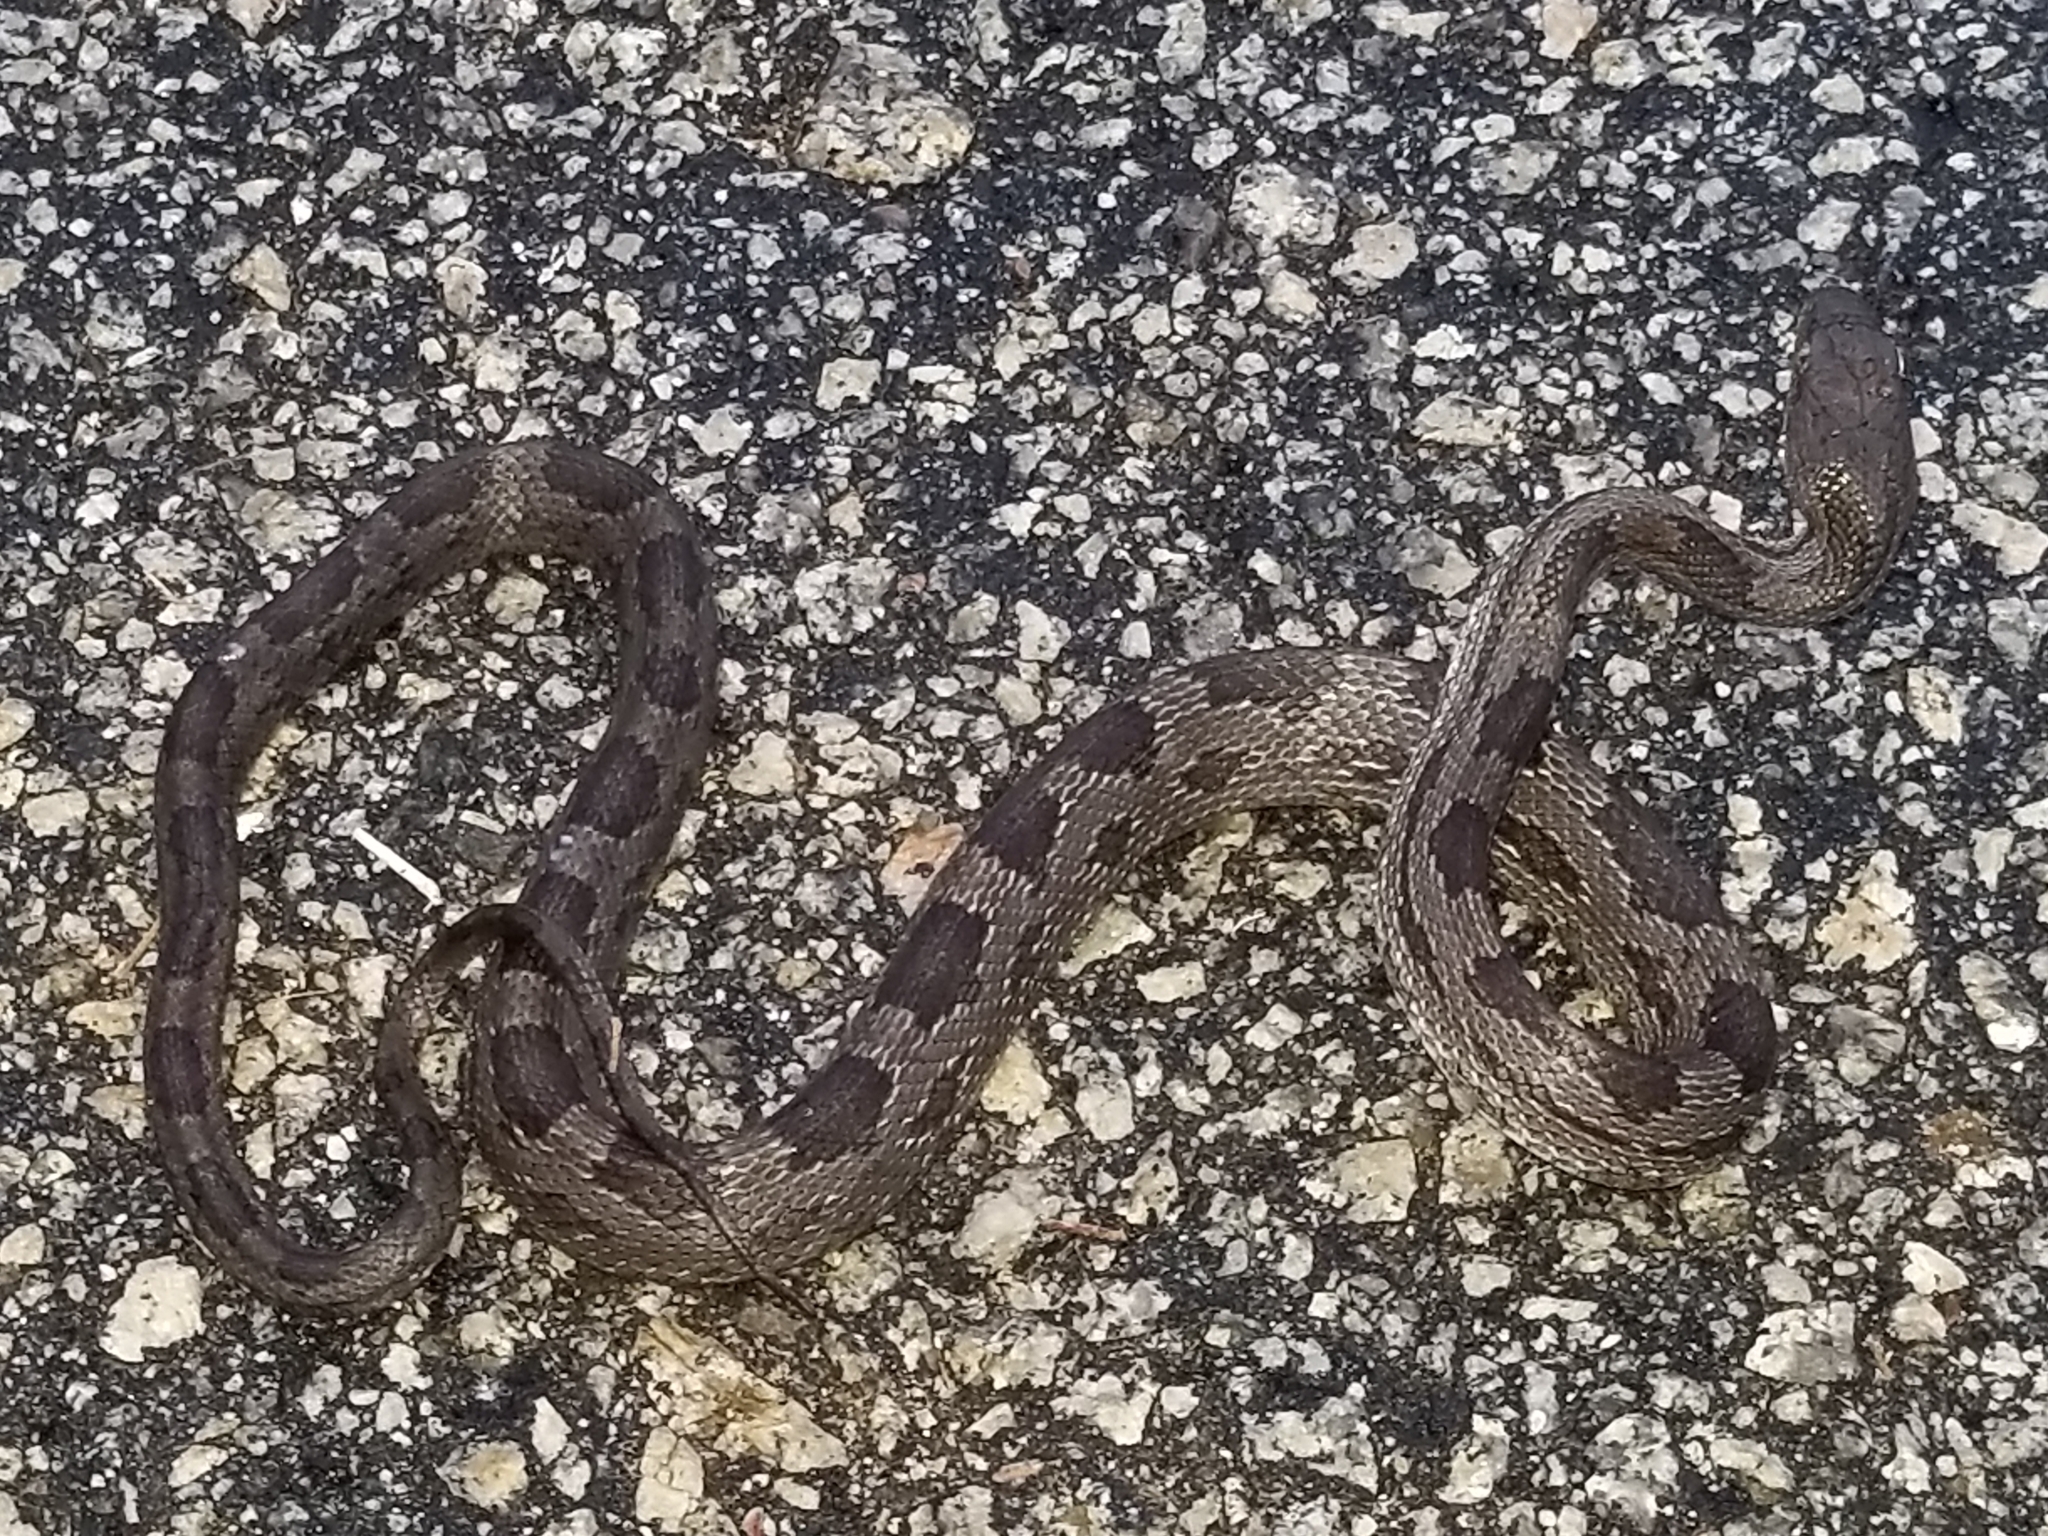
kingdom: Animalia
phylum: Chordata
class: Squamata
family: Colubridae
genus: Pantherophis
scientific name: Pantherophis alleghaniensis
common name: Eastern rat snake
